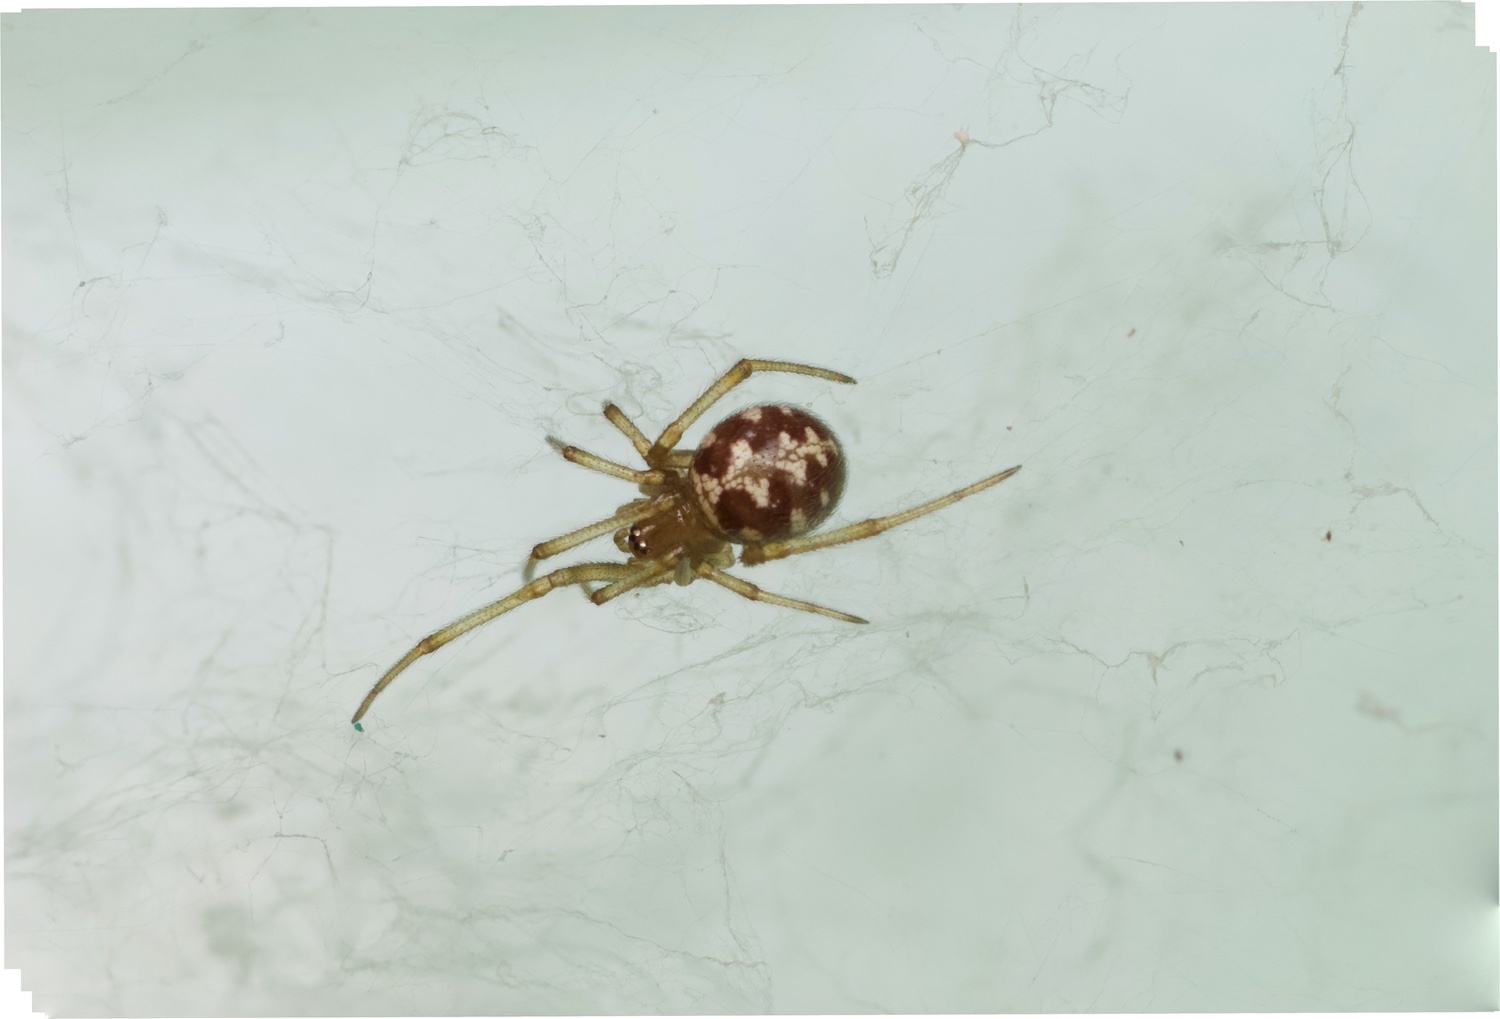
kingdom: Animalia
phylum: Arthropoda
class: Arachnida
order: Araneae
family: Theridiidae
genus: Steatoda
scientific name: Steatoda triangulosa
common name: Triangulate bud spider
